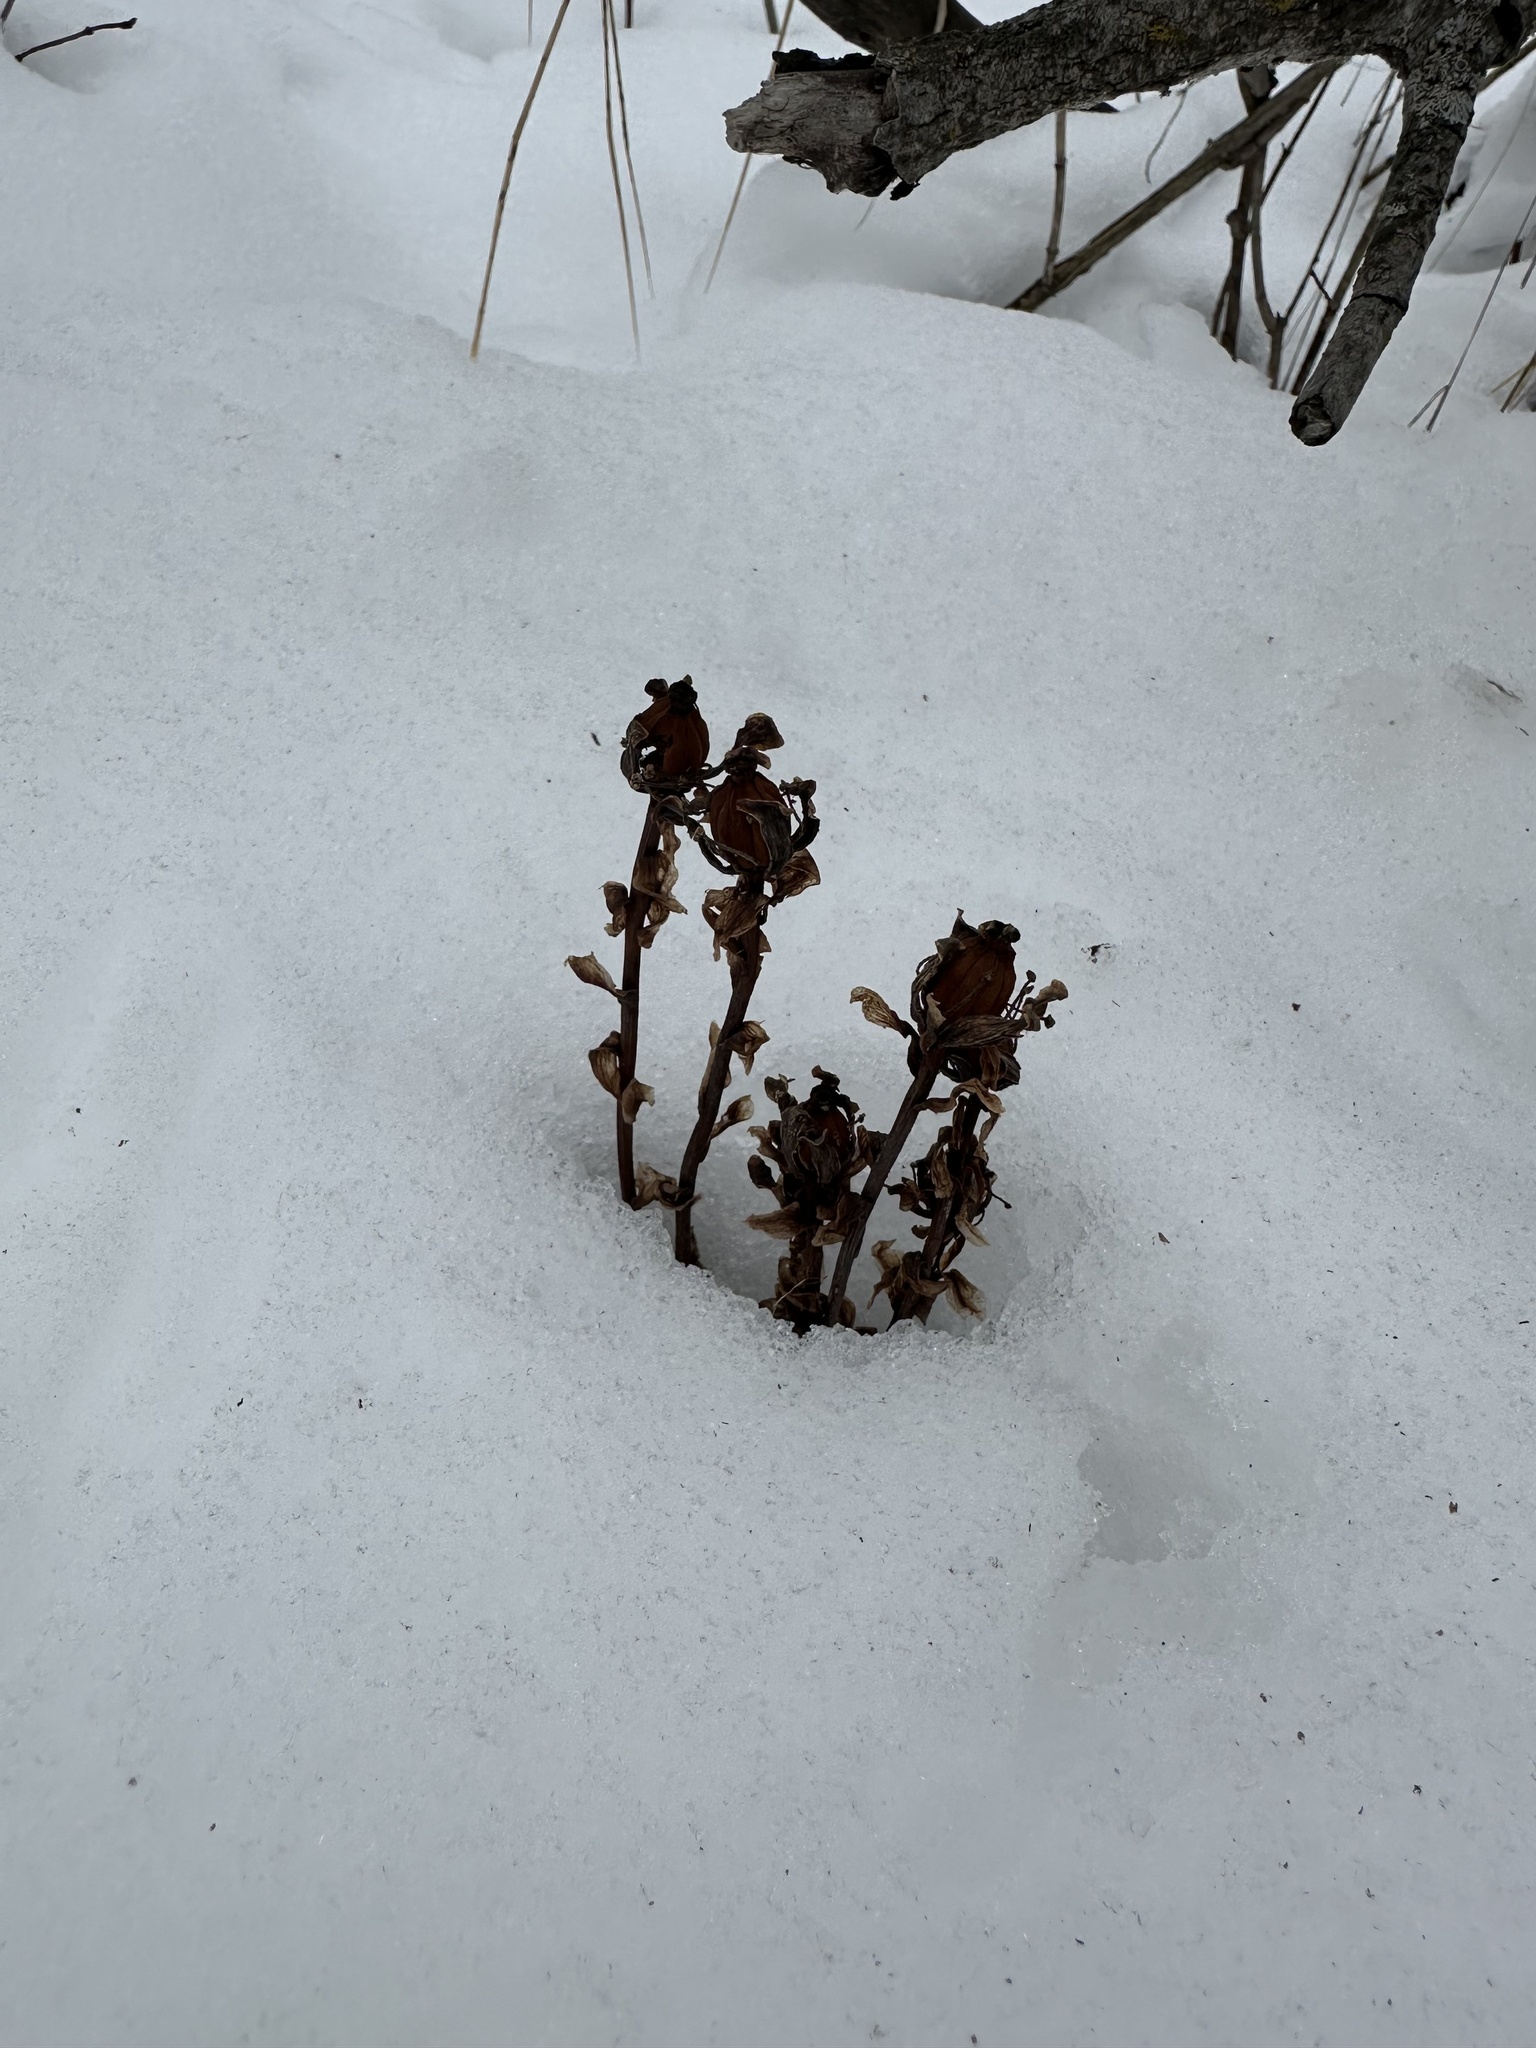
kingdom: Plantae
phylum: Tracheophyta
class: Magnoliopsida
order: Ericales
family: Ericaceae
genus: Monotropa
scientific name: Monotropa uniflora
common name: Convulsion root
